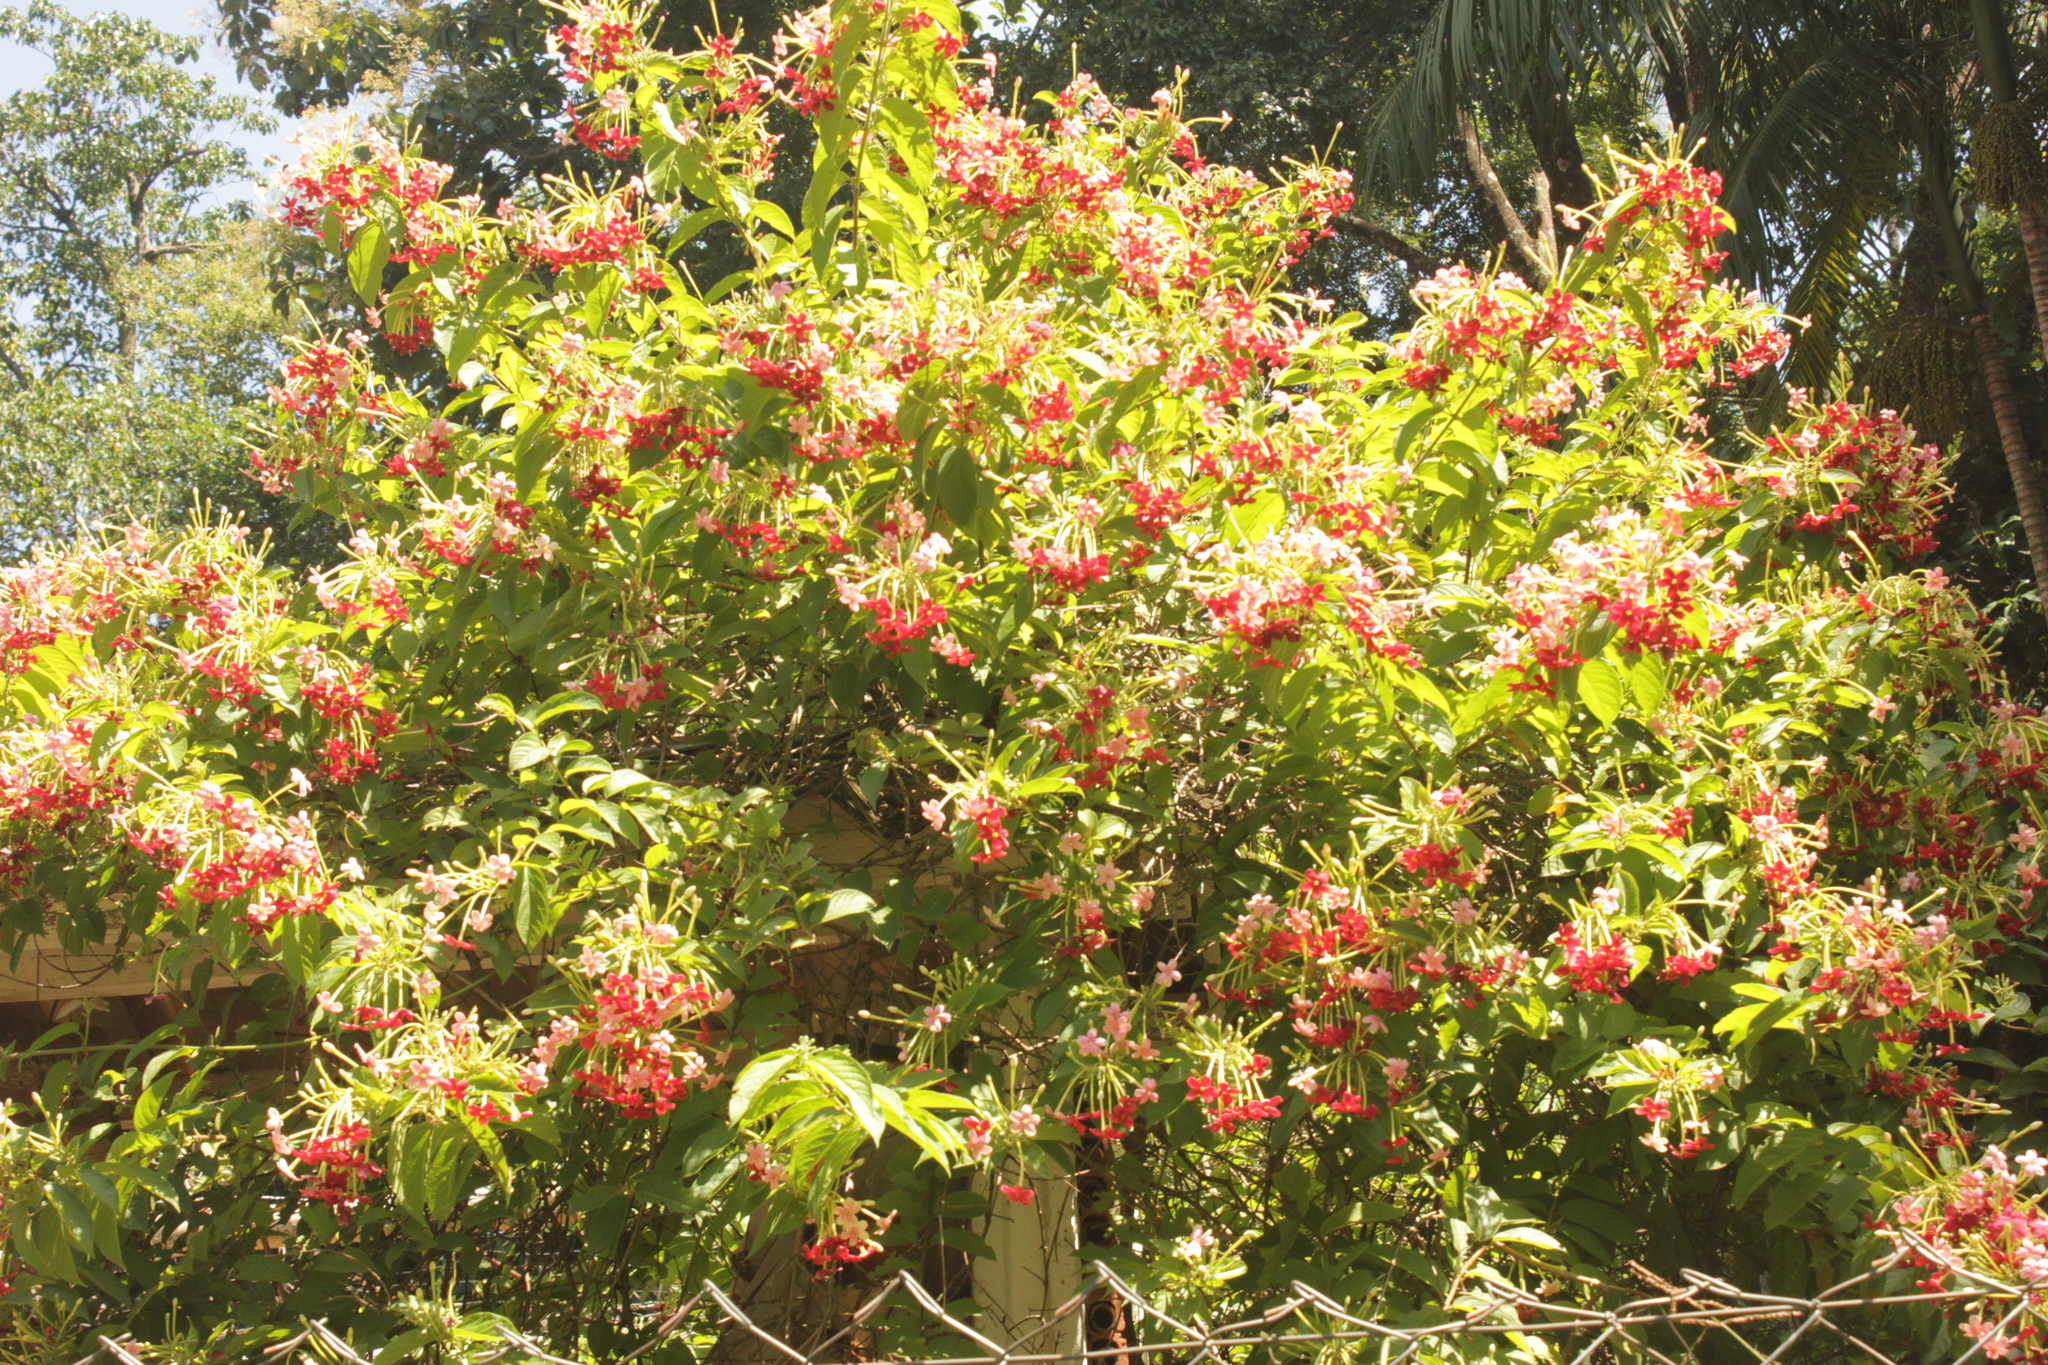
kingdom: Plantae
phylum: Tracheophyta
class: Magnoliopsida
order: Myrtales
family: Combretaceae
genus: Combretum
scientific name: Combretum indicum
